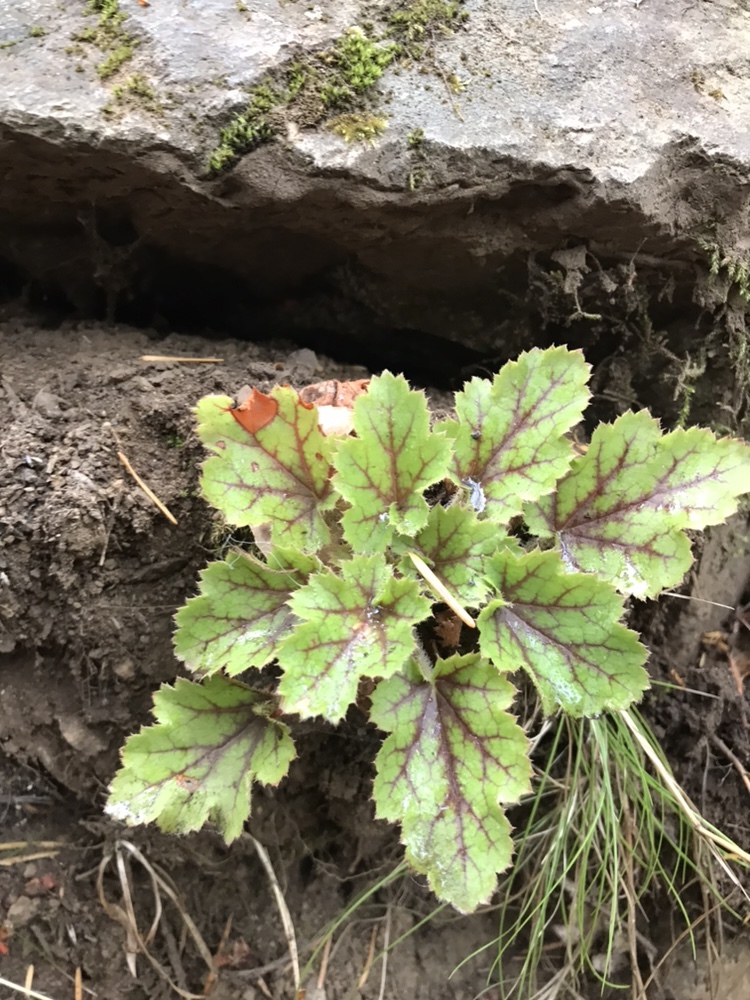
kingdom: Plantae
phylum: Tracheophyta
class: Magnoliopsida
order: Saxifragales
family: Saxifragaceae
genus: Heuchera
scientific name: Heuchera micrantha
